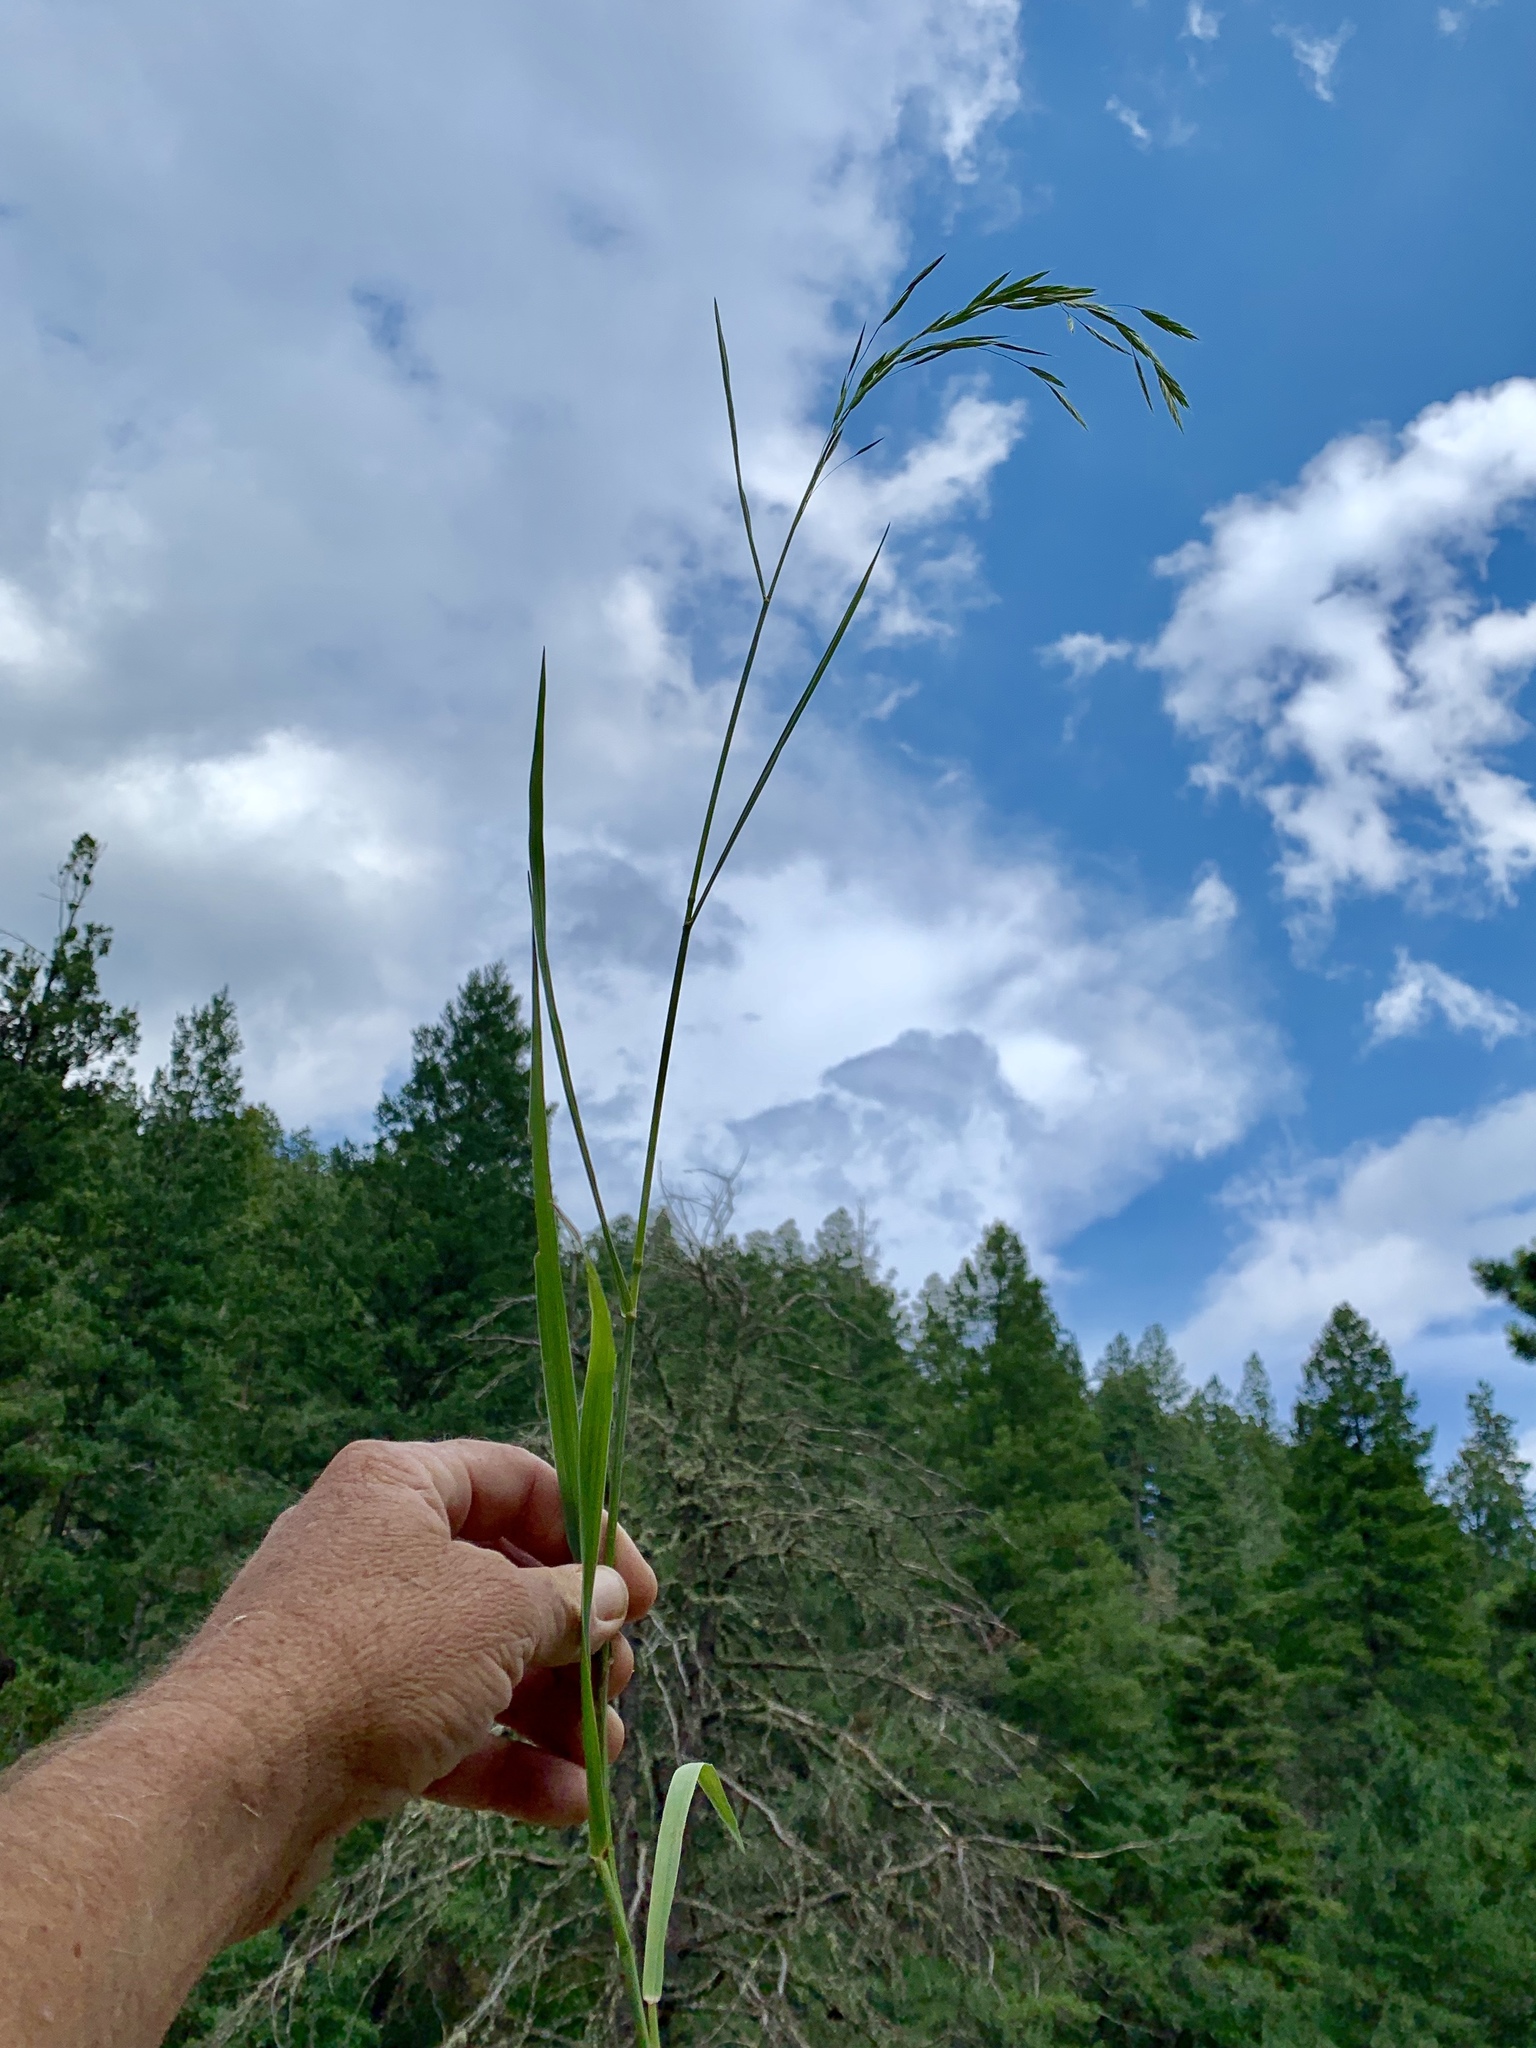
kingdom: Plantae
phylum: Tracheophyta
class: Liliopsida
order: Poales
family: Poaceae
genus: Bromus
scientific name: Bromus catharticus
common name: Rescuegrass
